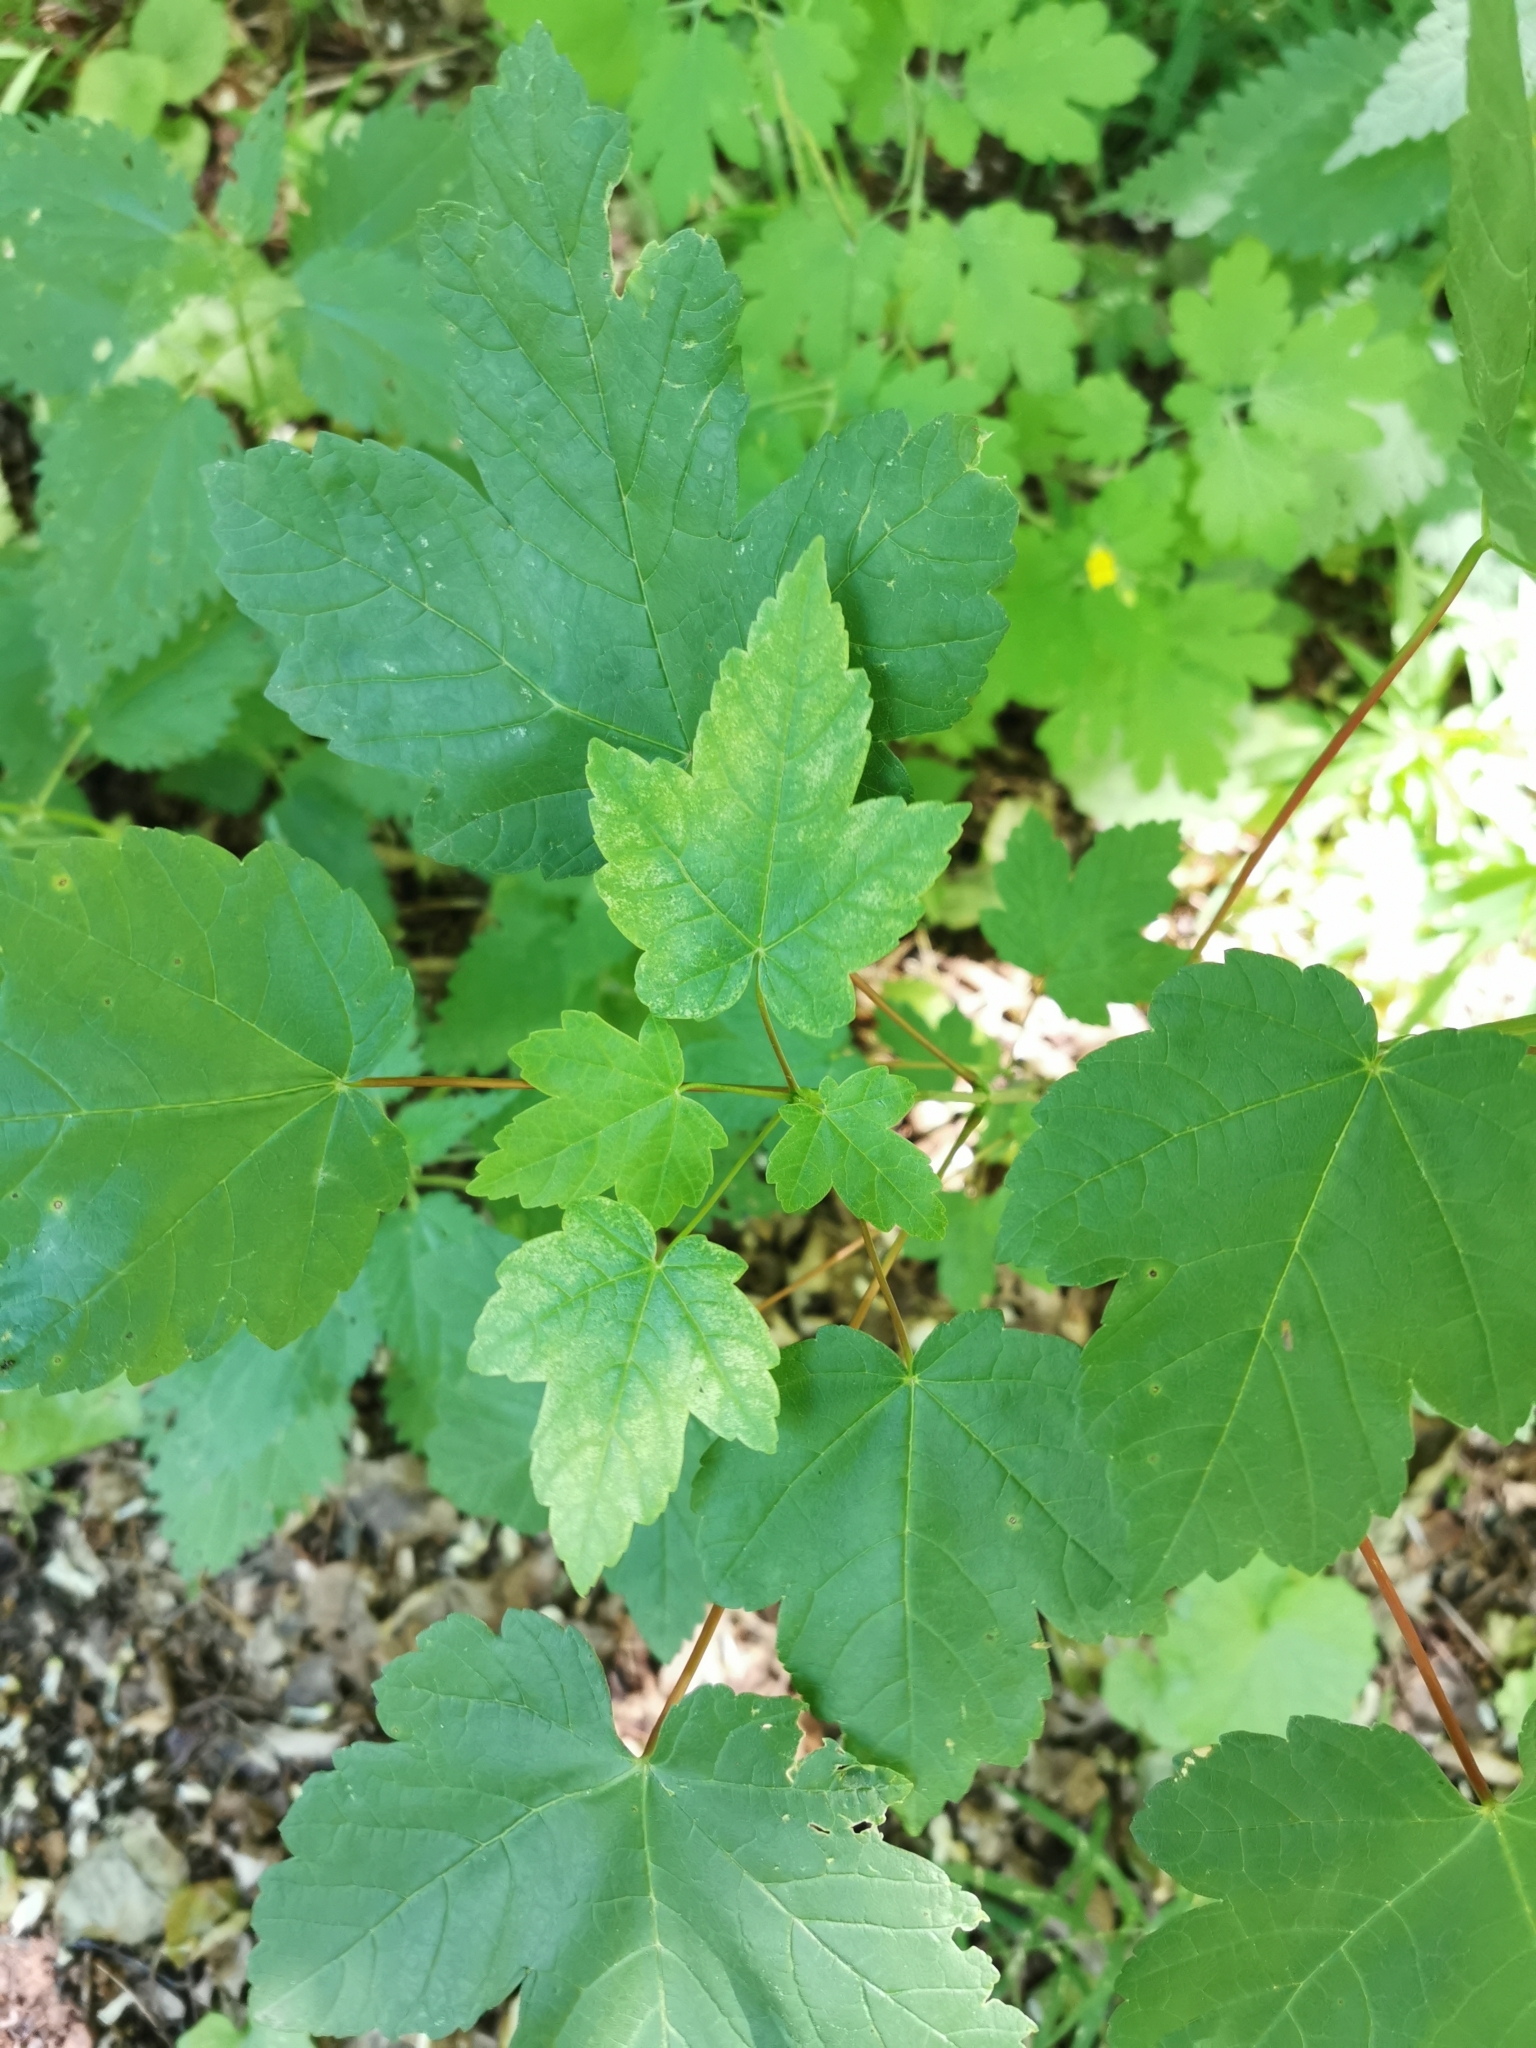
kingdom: Plantae
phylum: Tracheophyta
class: Magnoliopsida
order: Sapindales
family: Sapindaceae
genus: Acer
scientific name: Acer pseudoplatanus
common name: Sycamore
